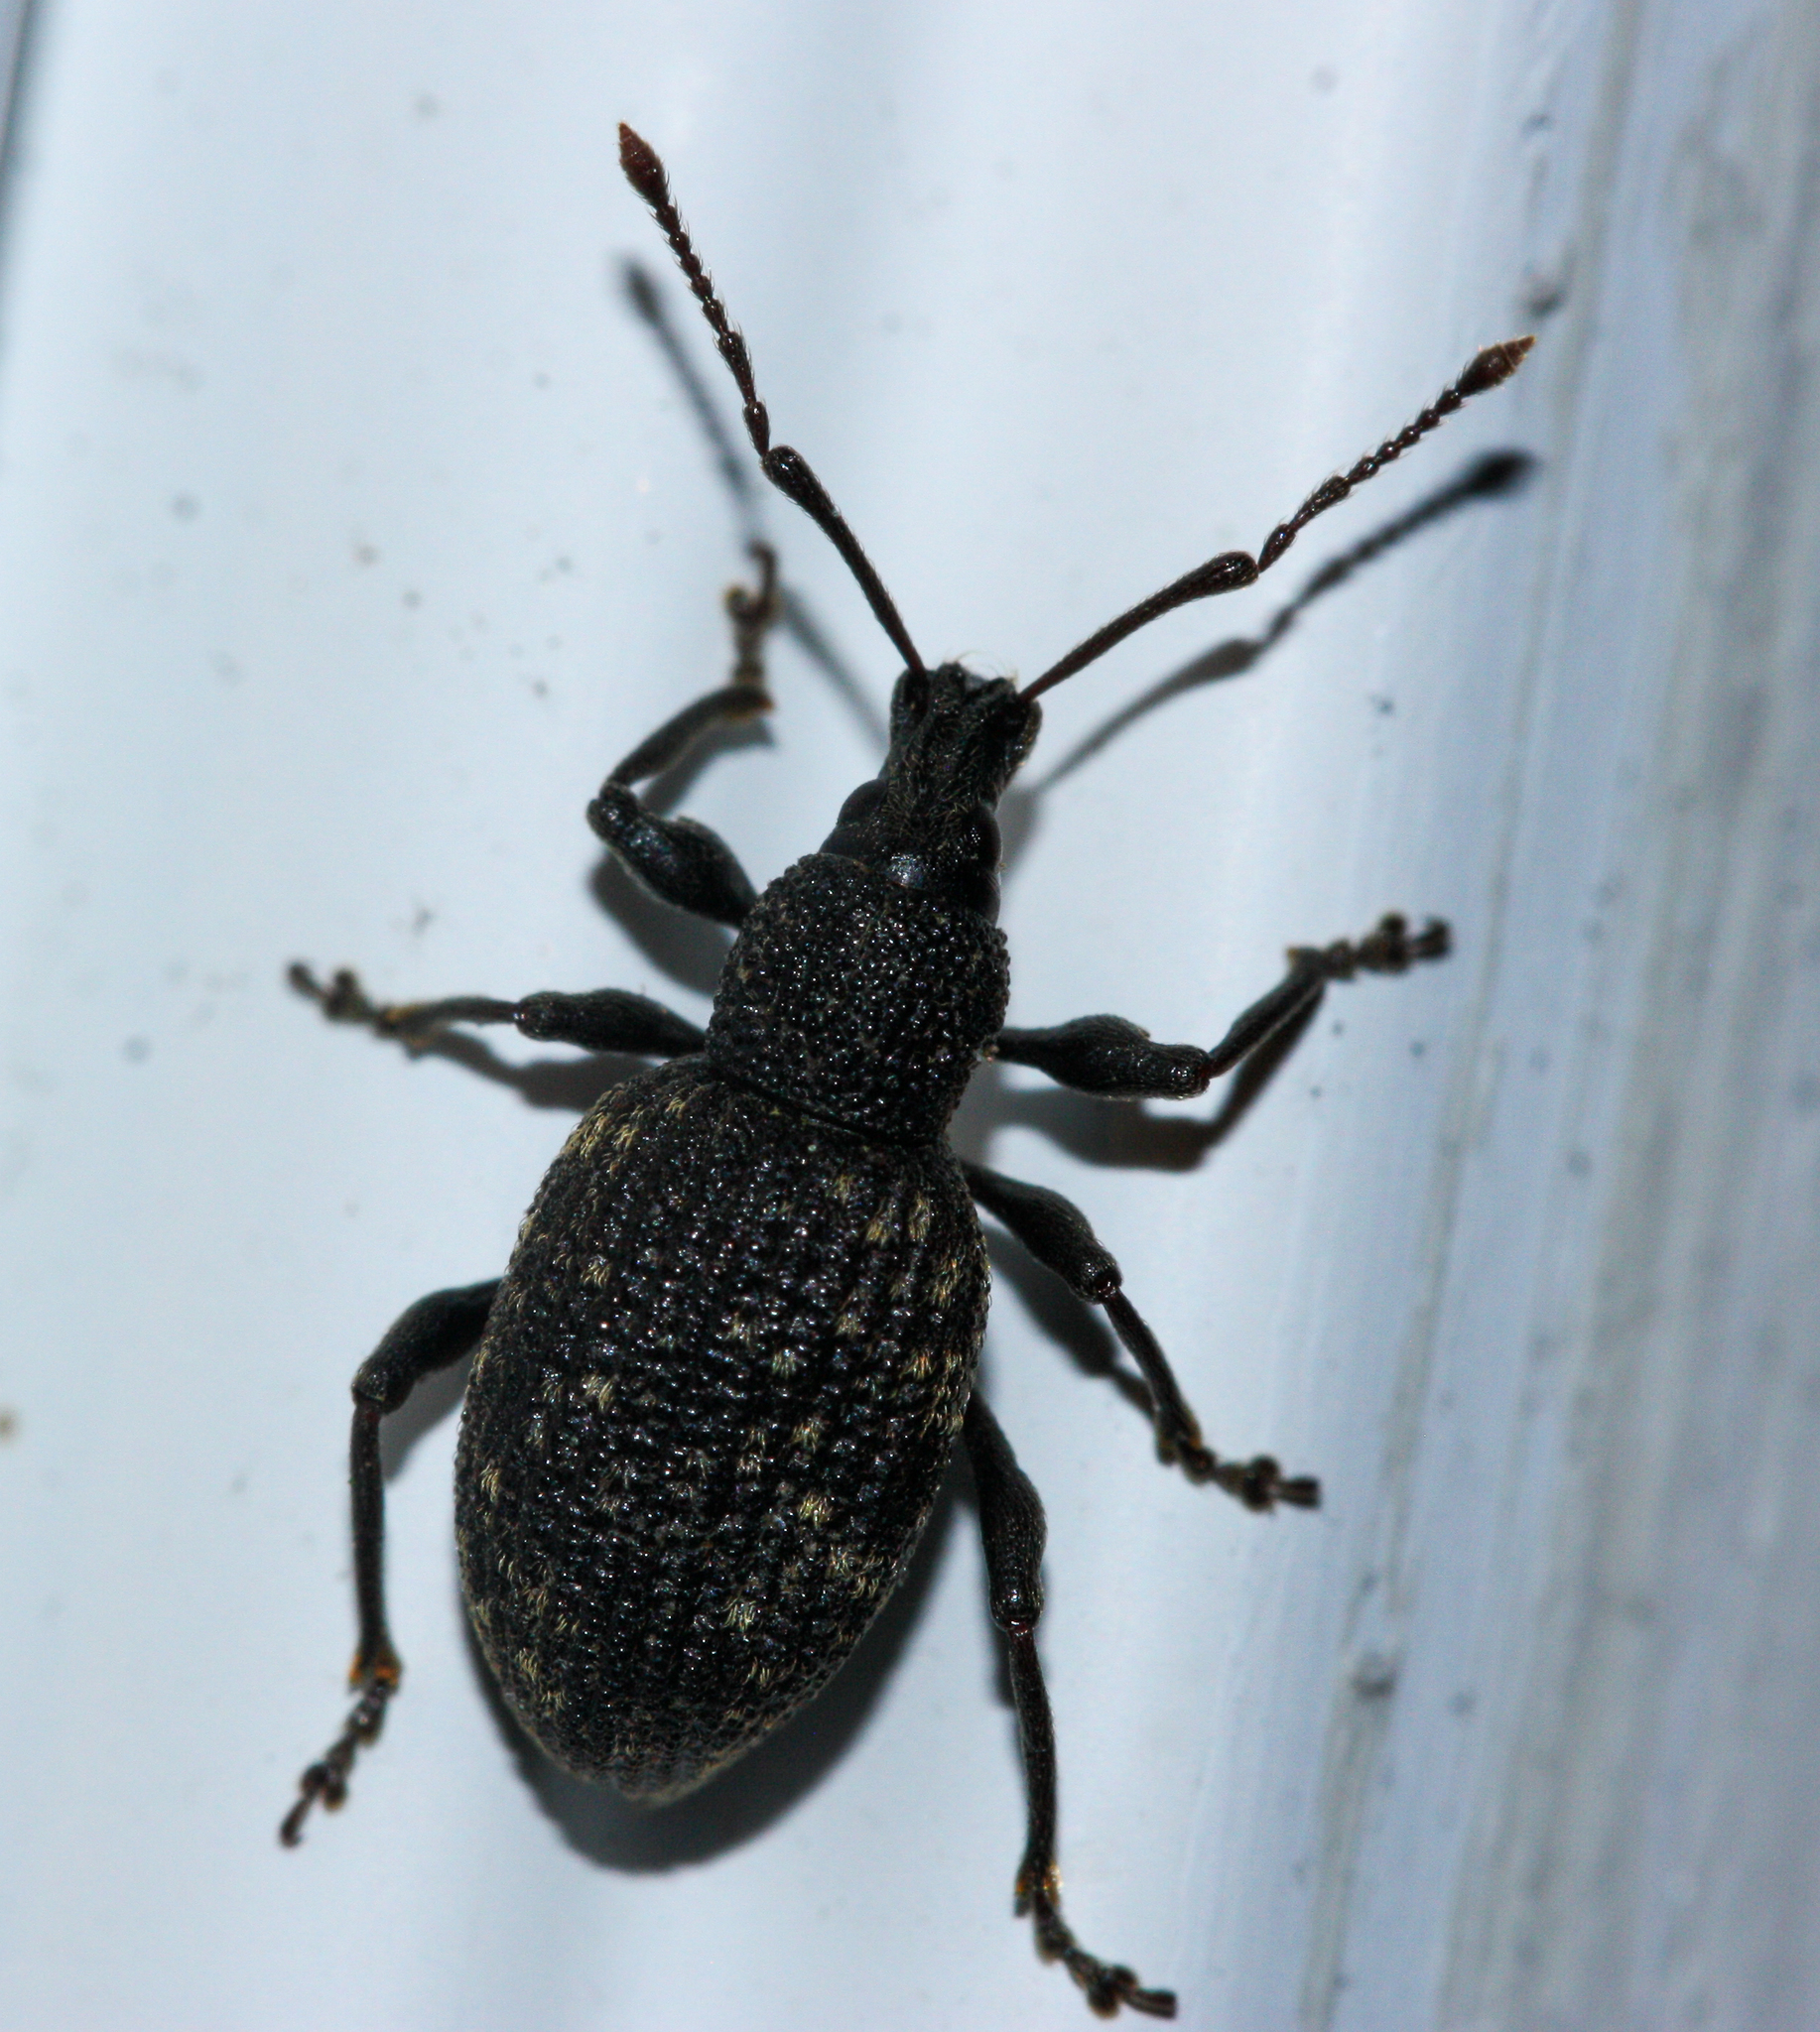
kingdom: Animalia
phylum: Arthropoda
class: Insecta
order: Coleoptera
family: Curculionidae
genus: Otiorhynchus
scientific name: Otiorhynchus sulcatus
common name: Black vine weevil
